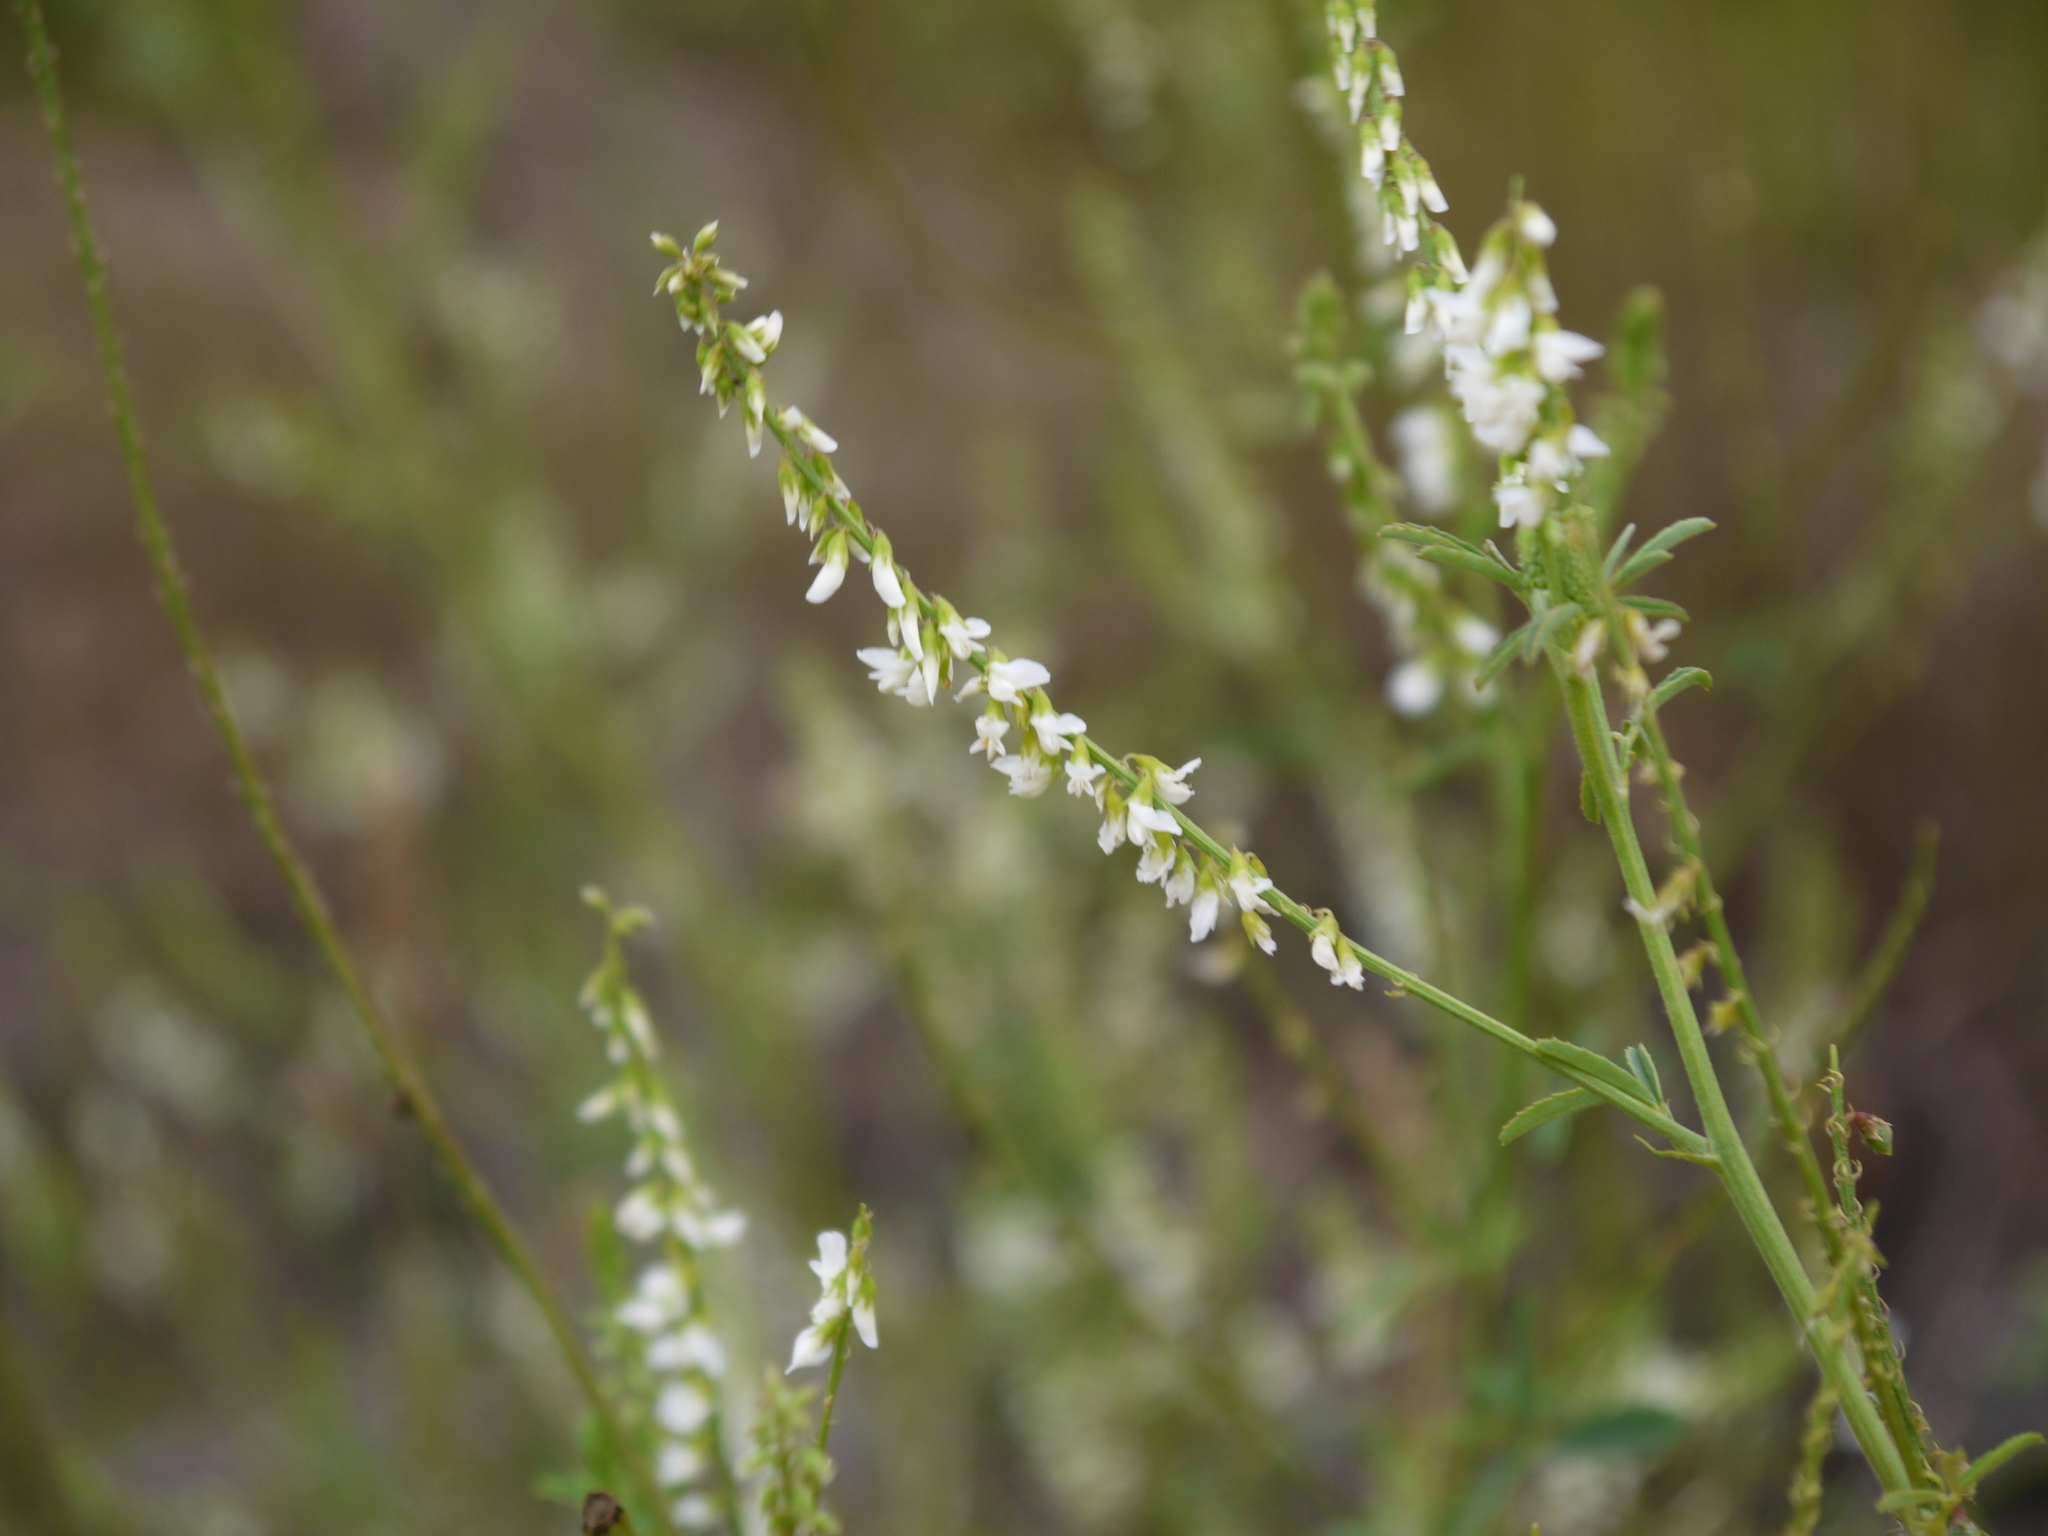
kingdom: Plantae
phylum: Tracheophyta
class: Magnoliopsida
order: Fabales
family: Fabaceae
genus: Melilotus
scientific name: Melilotus albus
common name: White melilot
